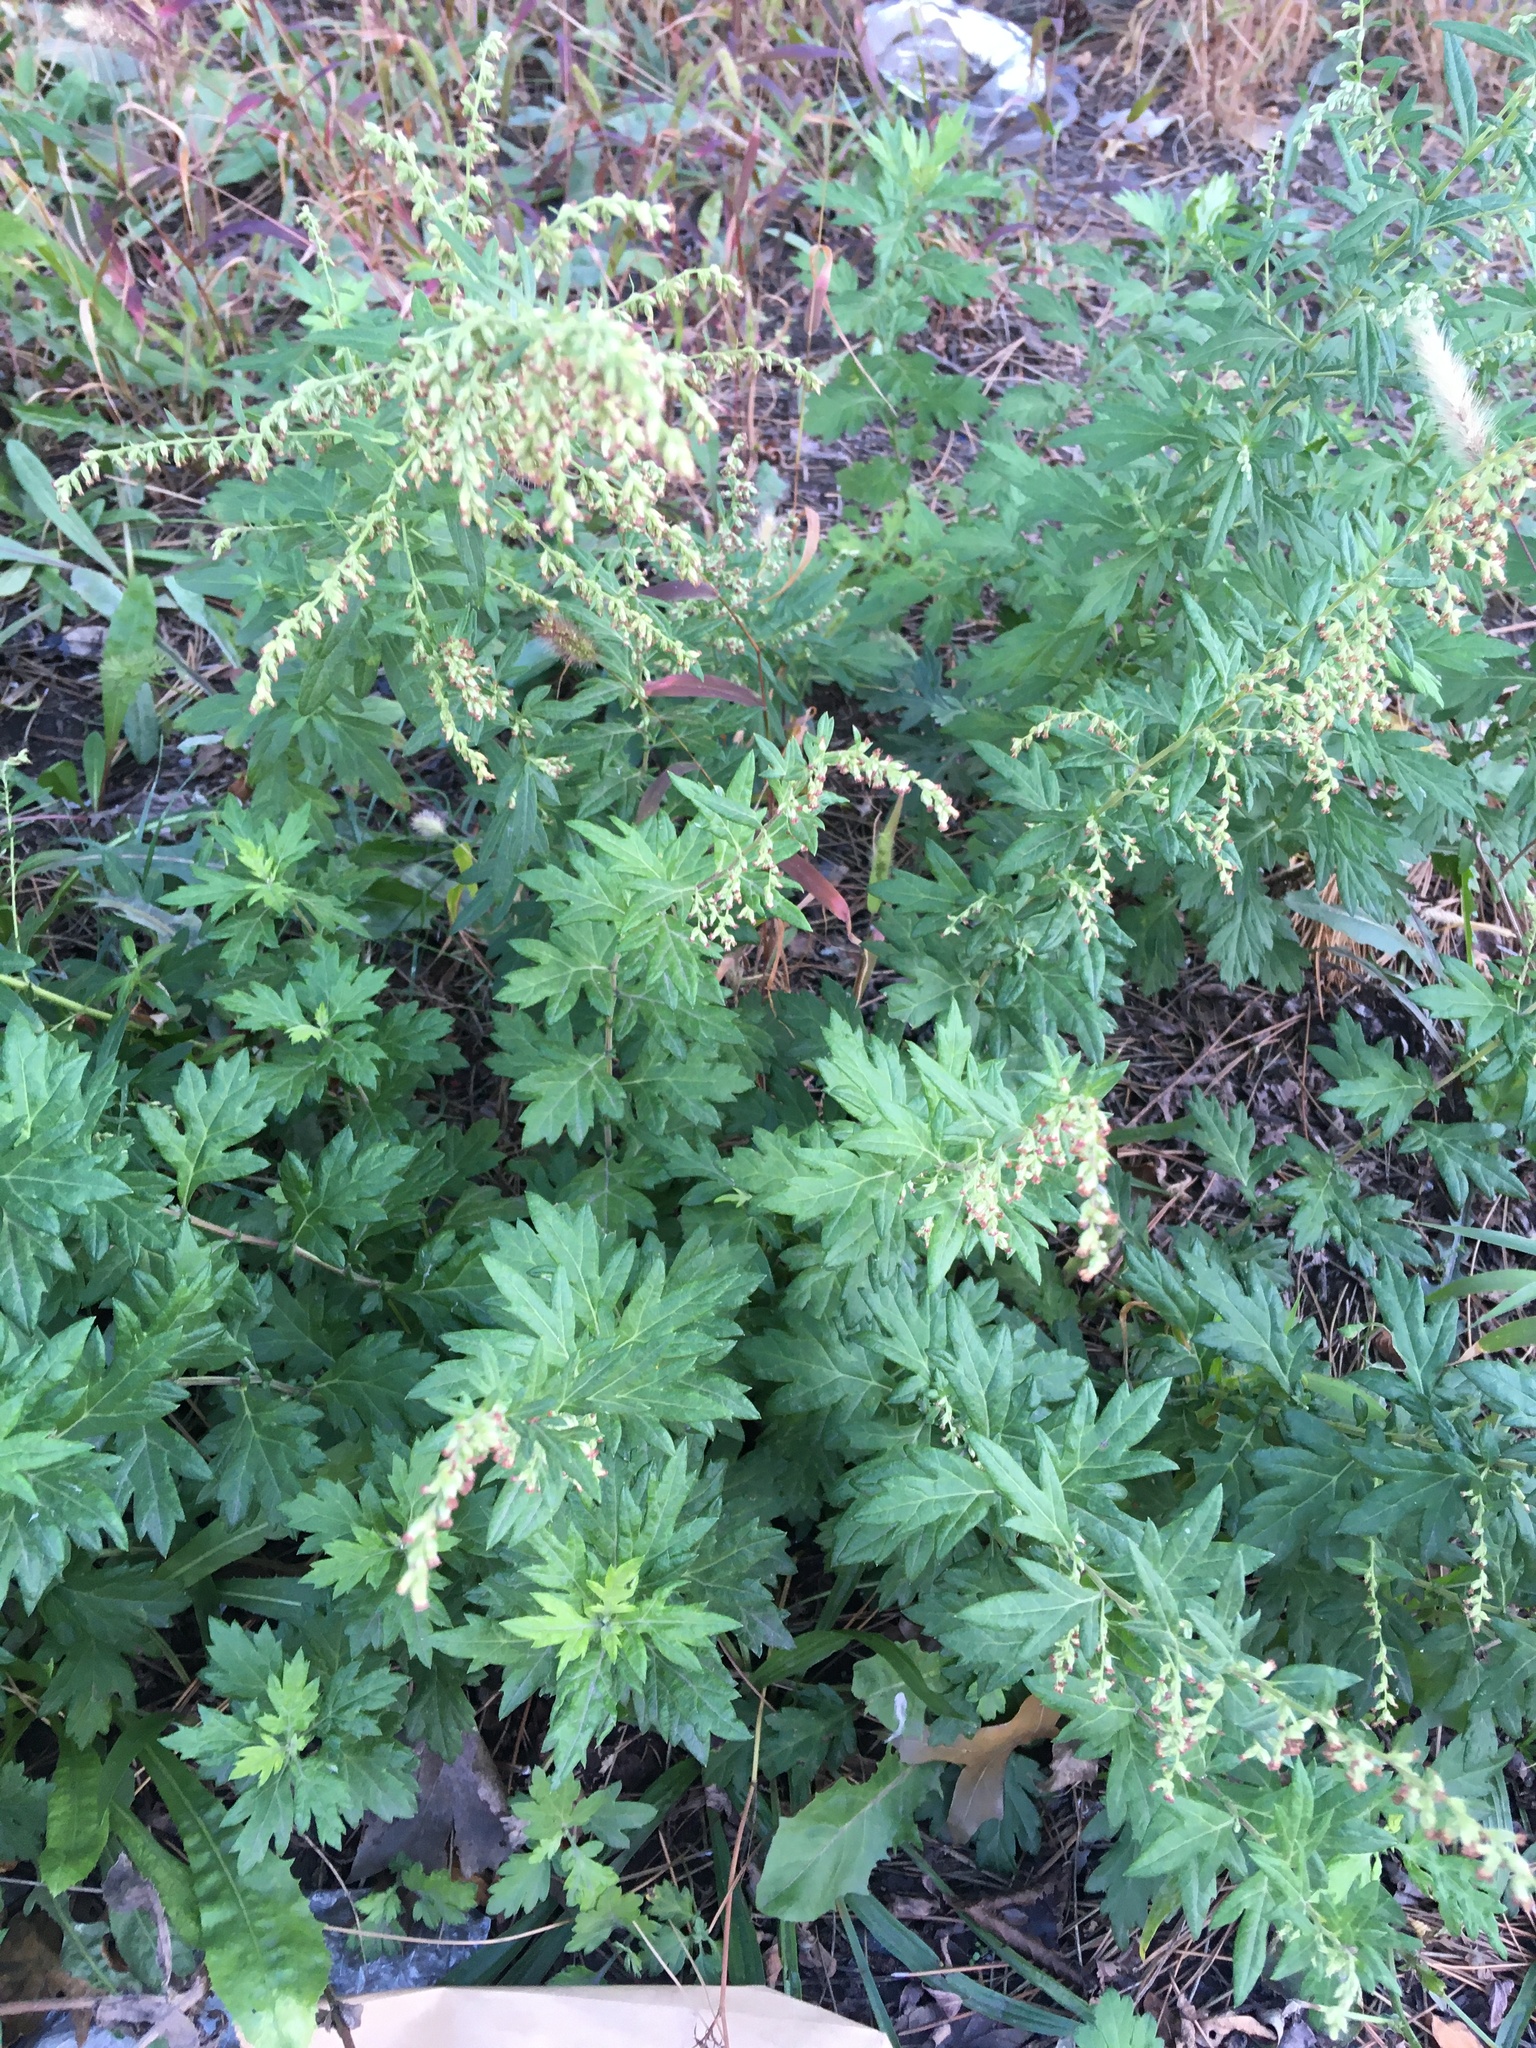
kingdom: Plantae
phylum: Tracheophyta
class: Magnoliopsida
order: Asterales
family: Asteraceae
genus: Artemisia
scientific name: Artemisia vulgaris
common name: Mugwort
